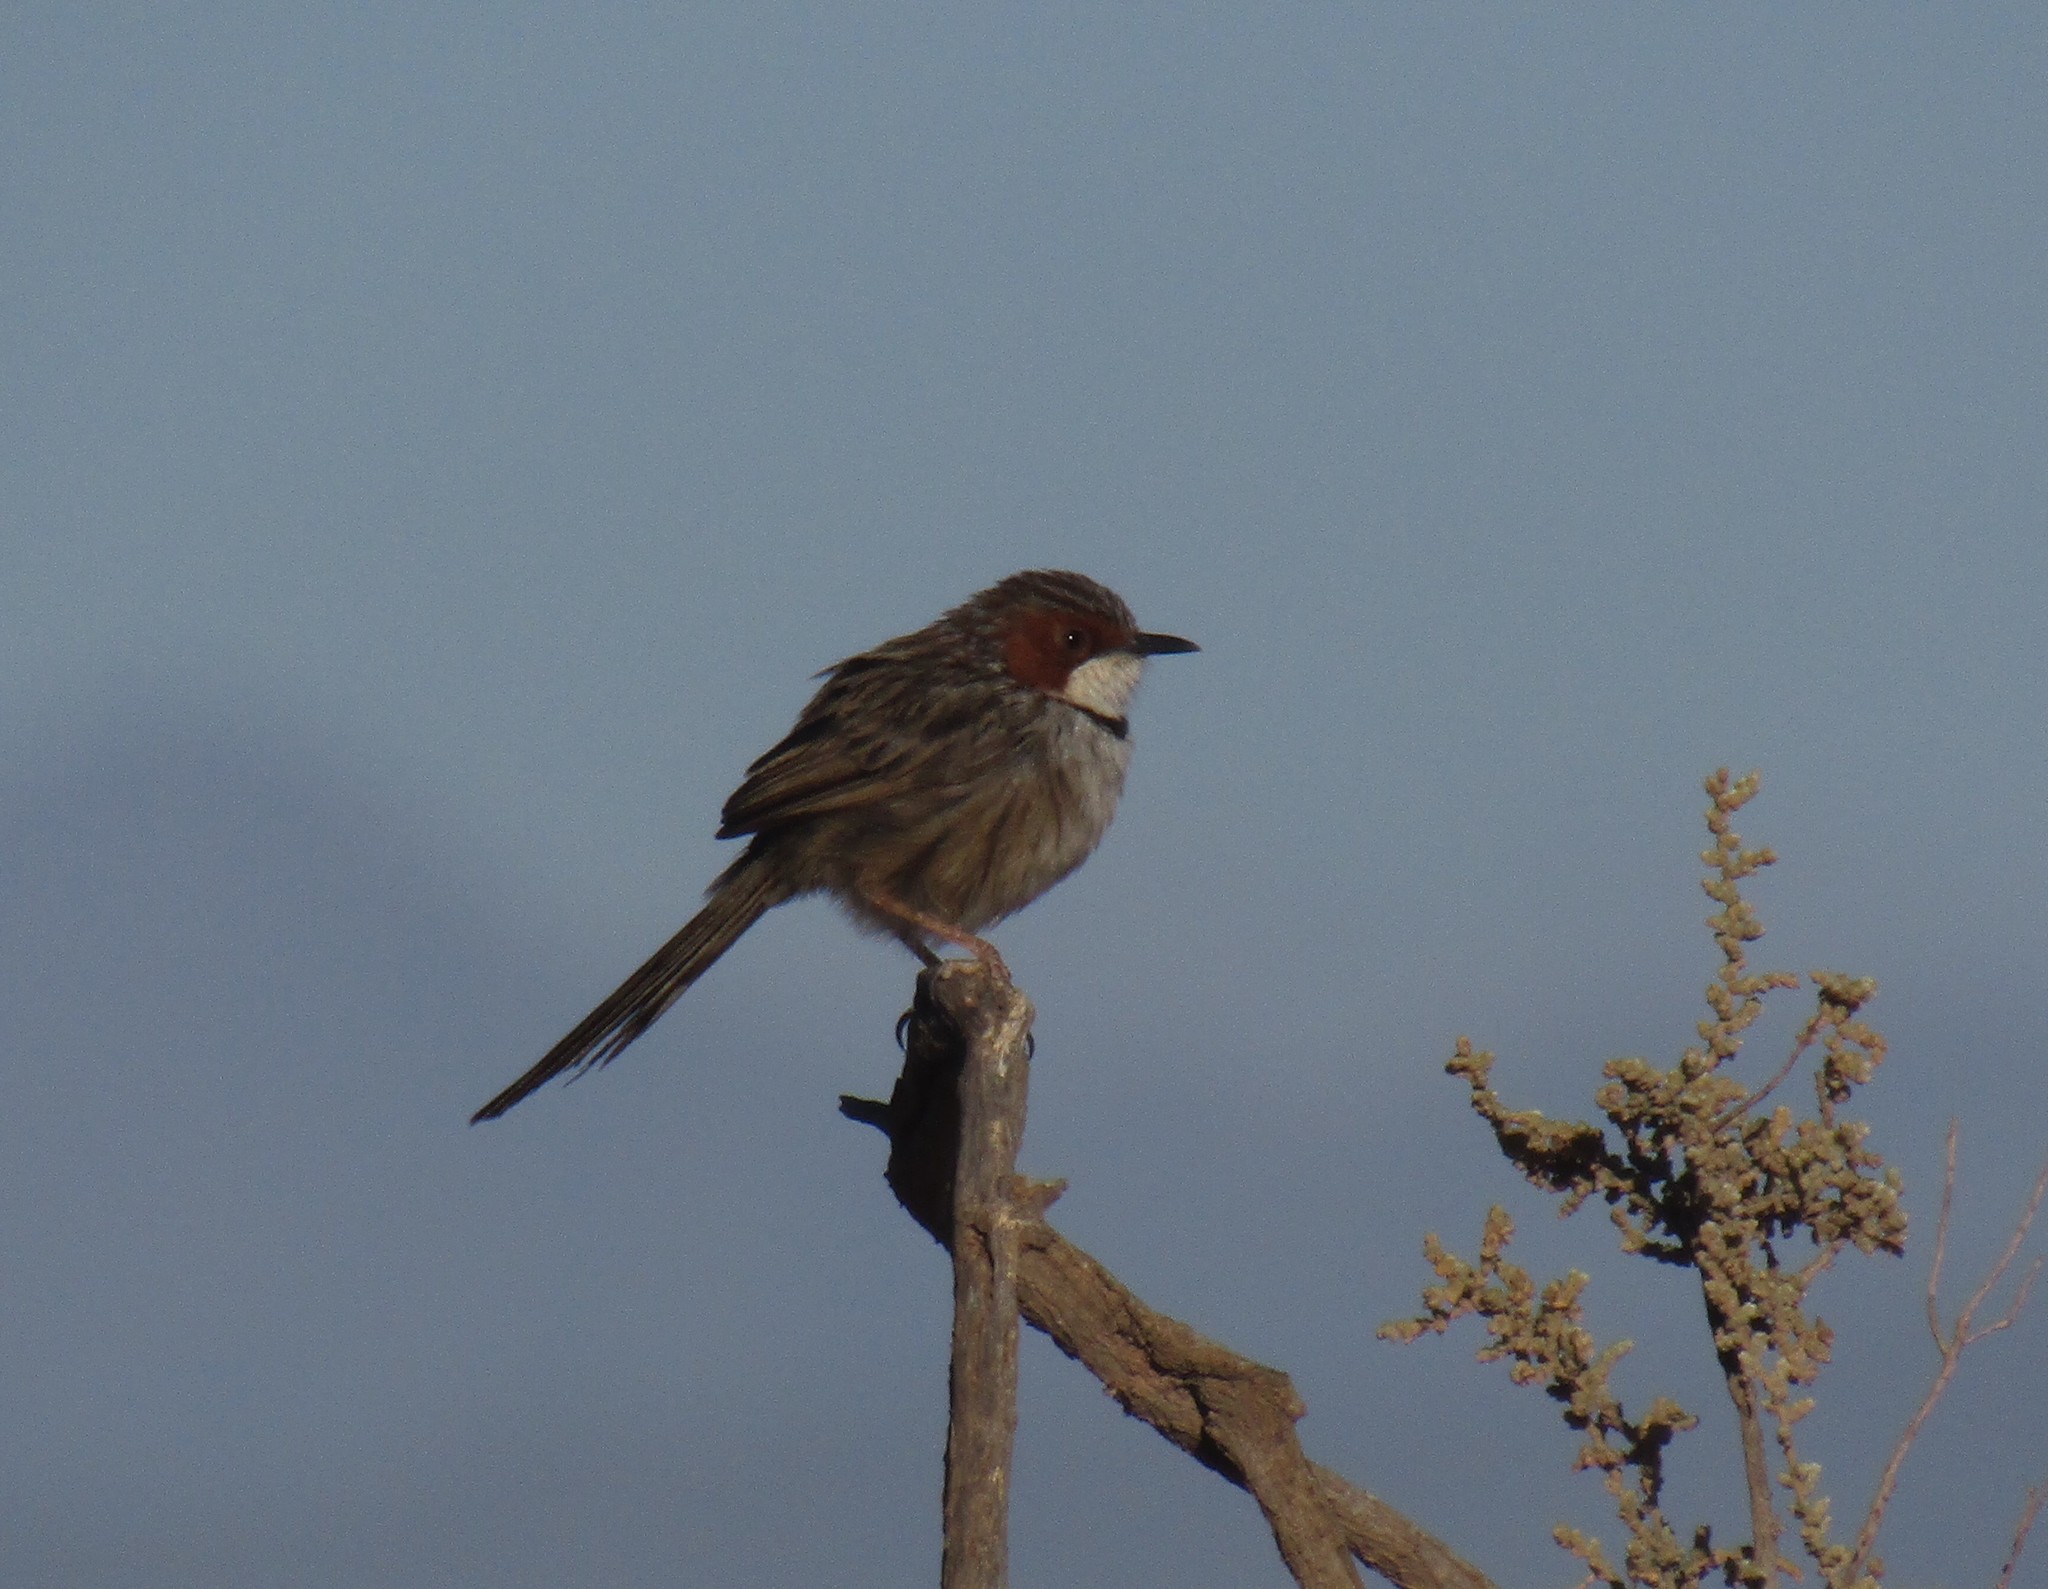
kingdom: Animalia
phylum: Chordata
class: Aves
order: Passeriformes
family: Cisticolidae
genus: Malcorus
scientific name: Malcorus pectoralis
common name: Rufous-eared warbler
